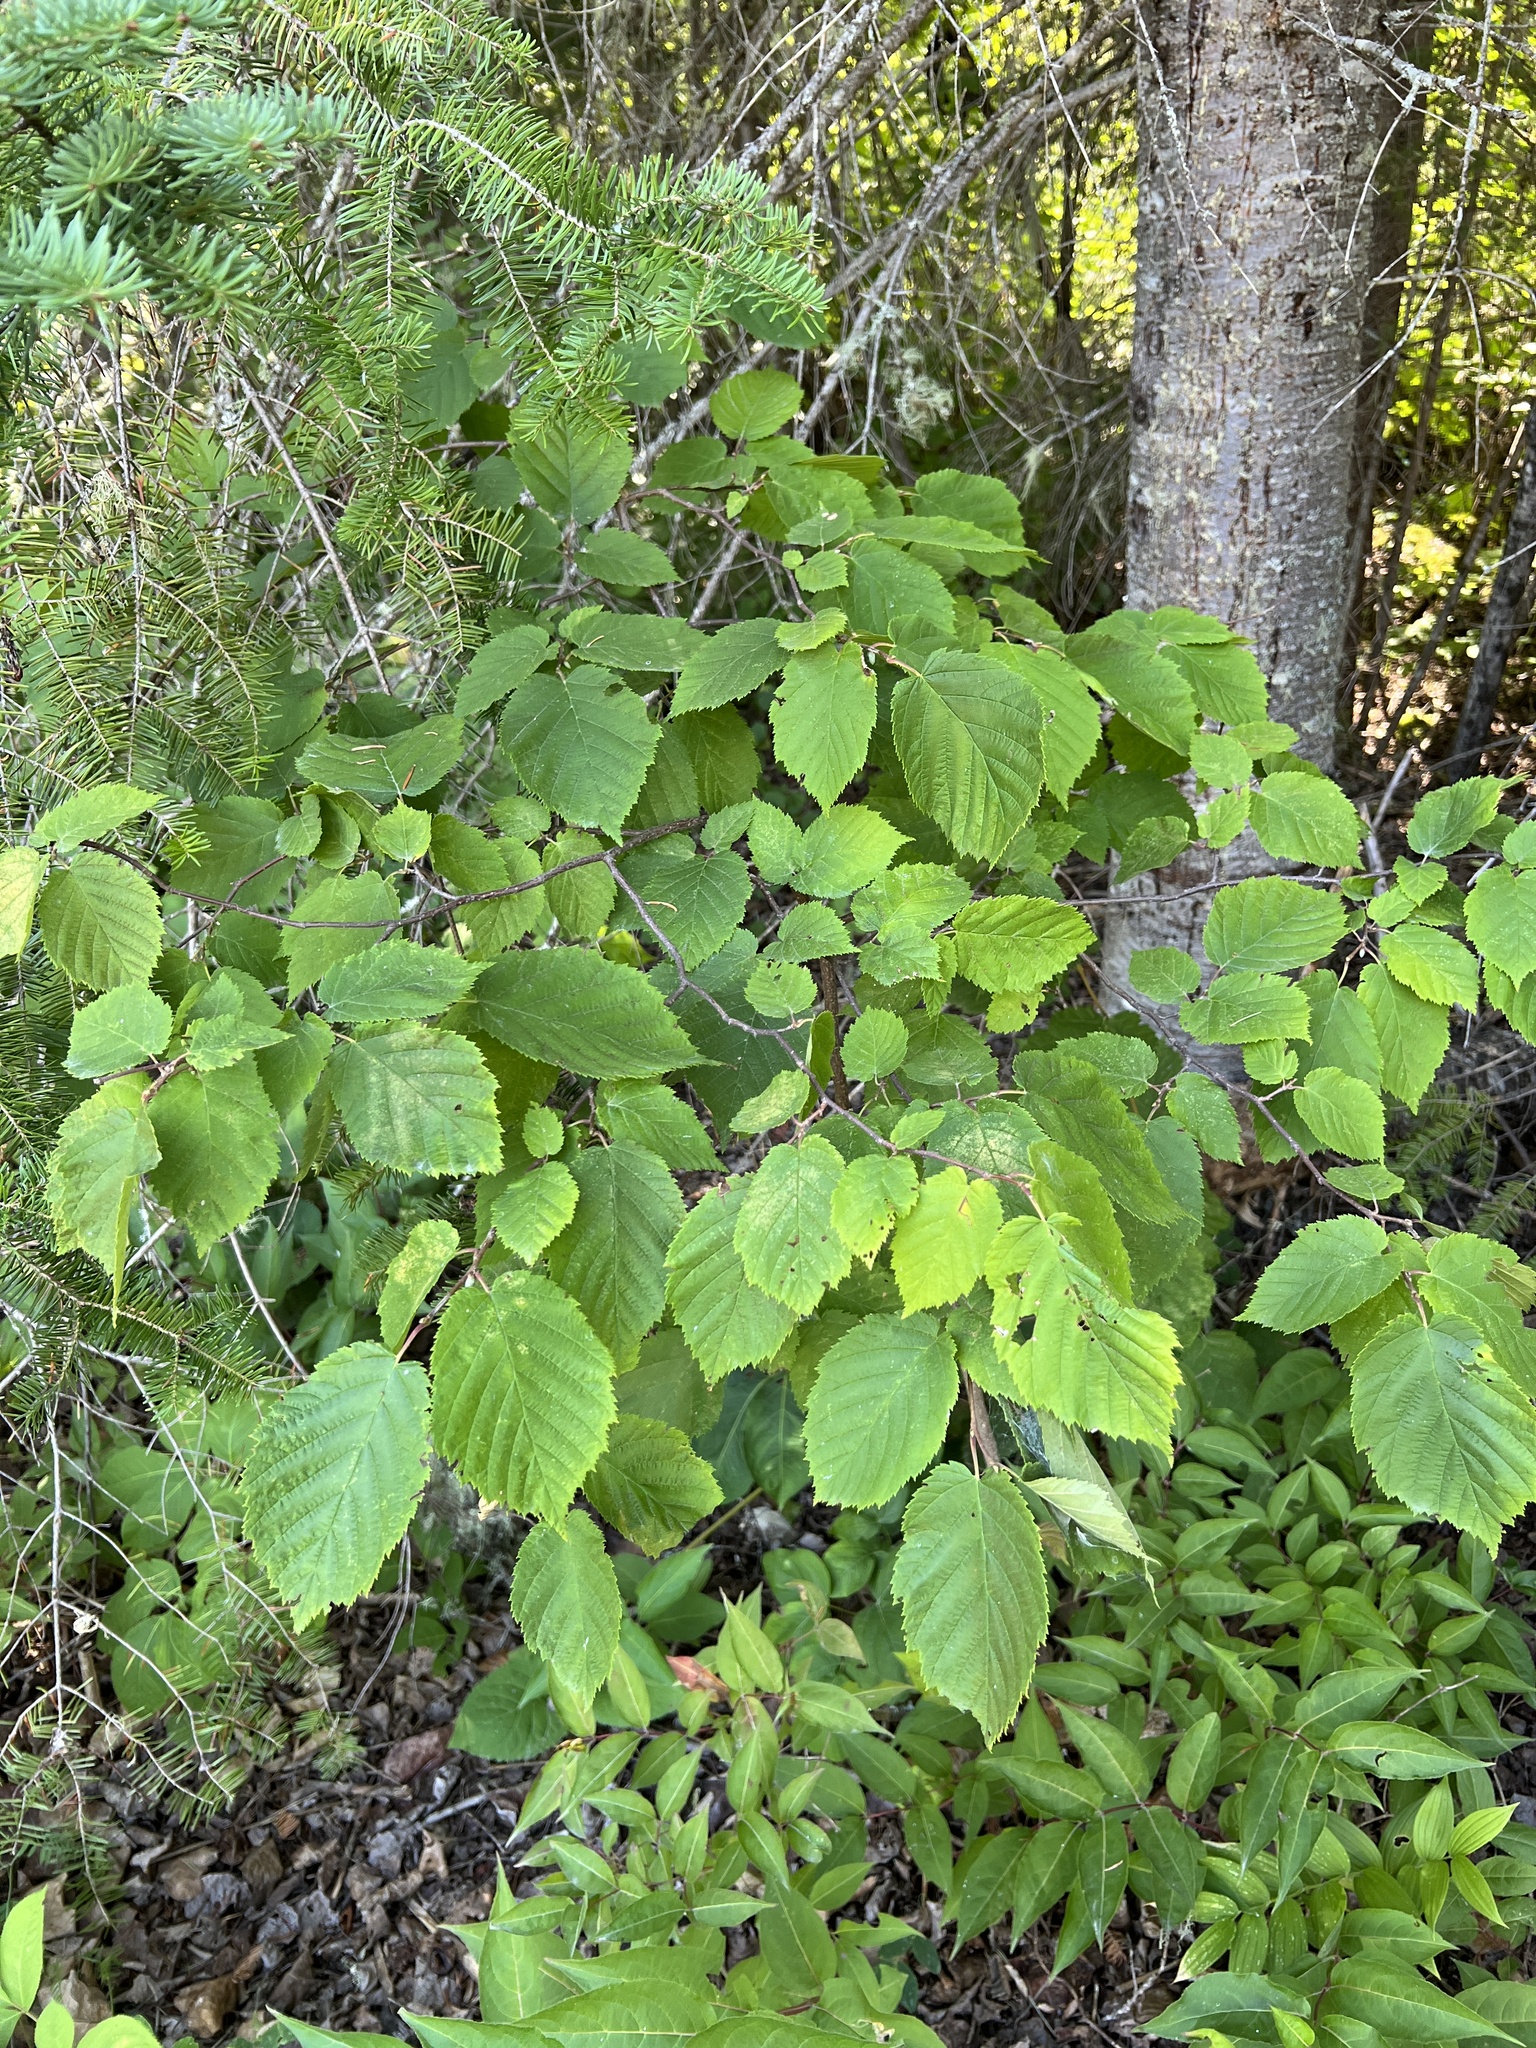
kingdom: Plantae
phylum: Tracheophyta
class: Magnoliopsida
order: Fagales
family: Betulaceae
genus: Corylus
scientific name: Corylus cornuta
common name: Beaked hazel
